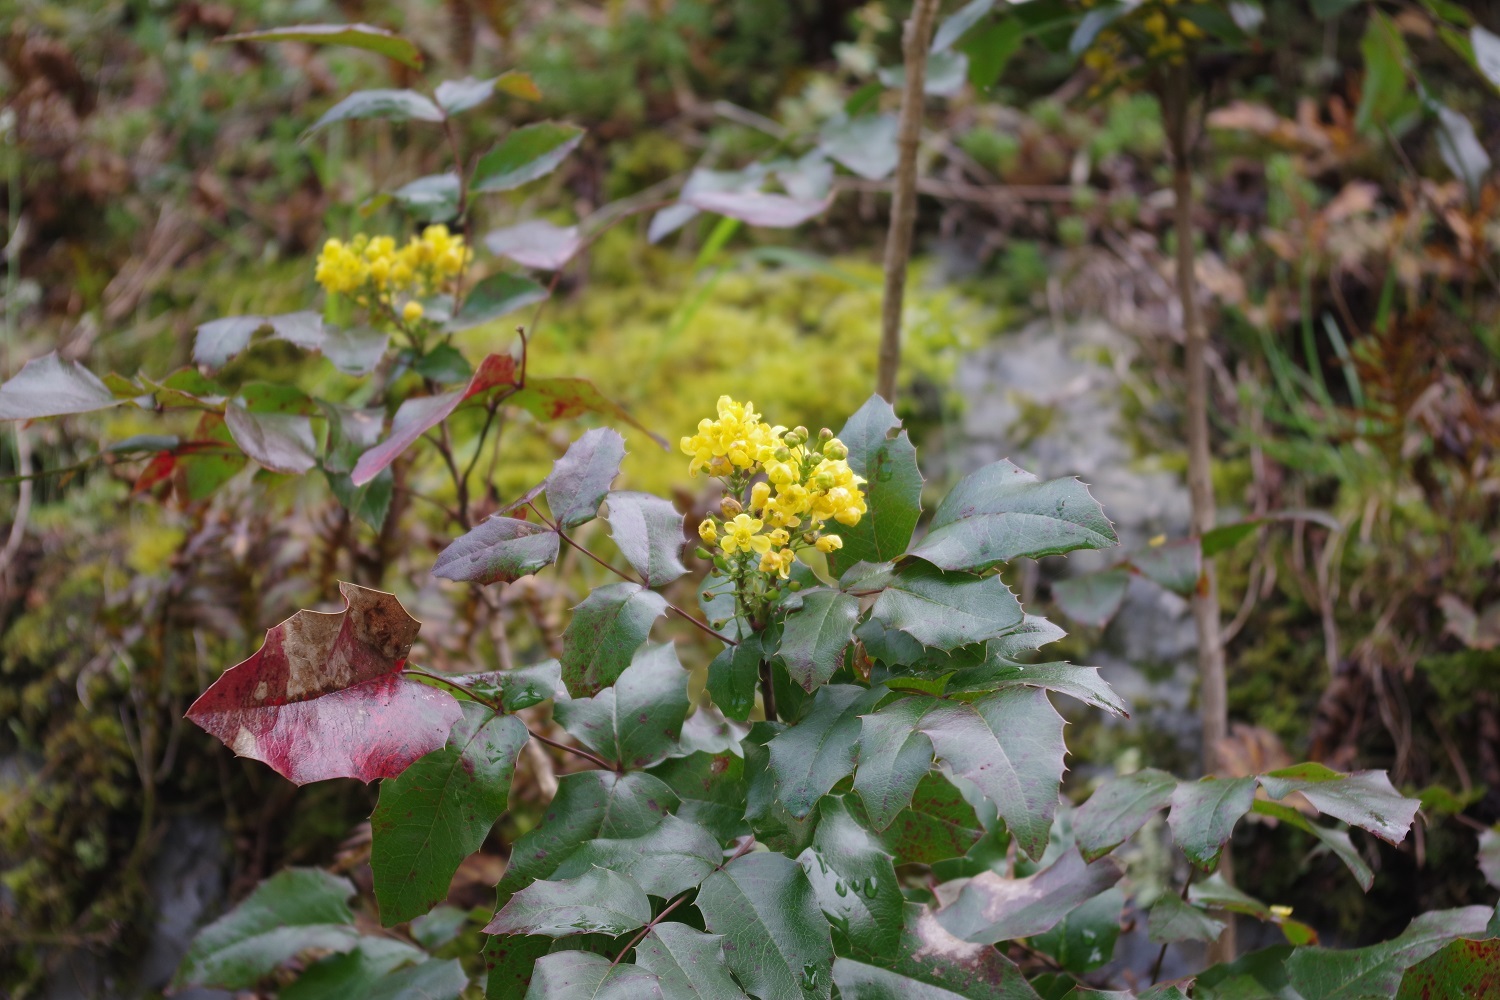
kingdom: Plantae
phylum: Tracheophyta
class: Magnoliopsida
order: Ranunculales
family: Berberidaceae
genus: Mahonia
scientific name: Mahonia aquifolium
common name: Oregon-grape
